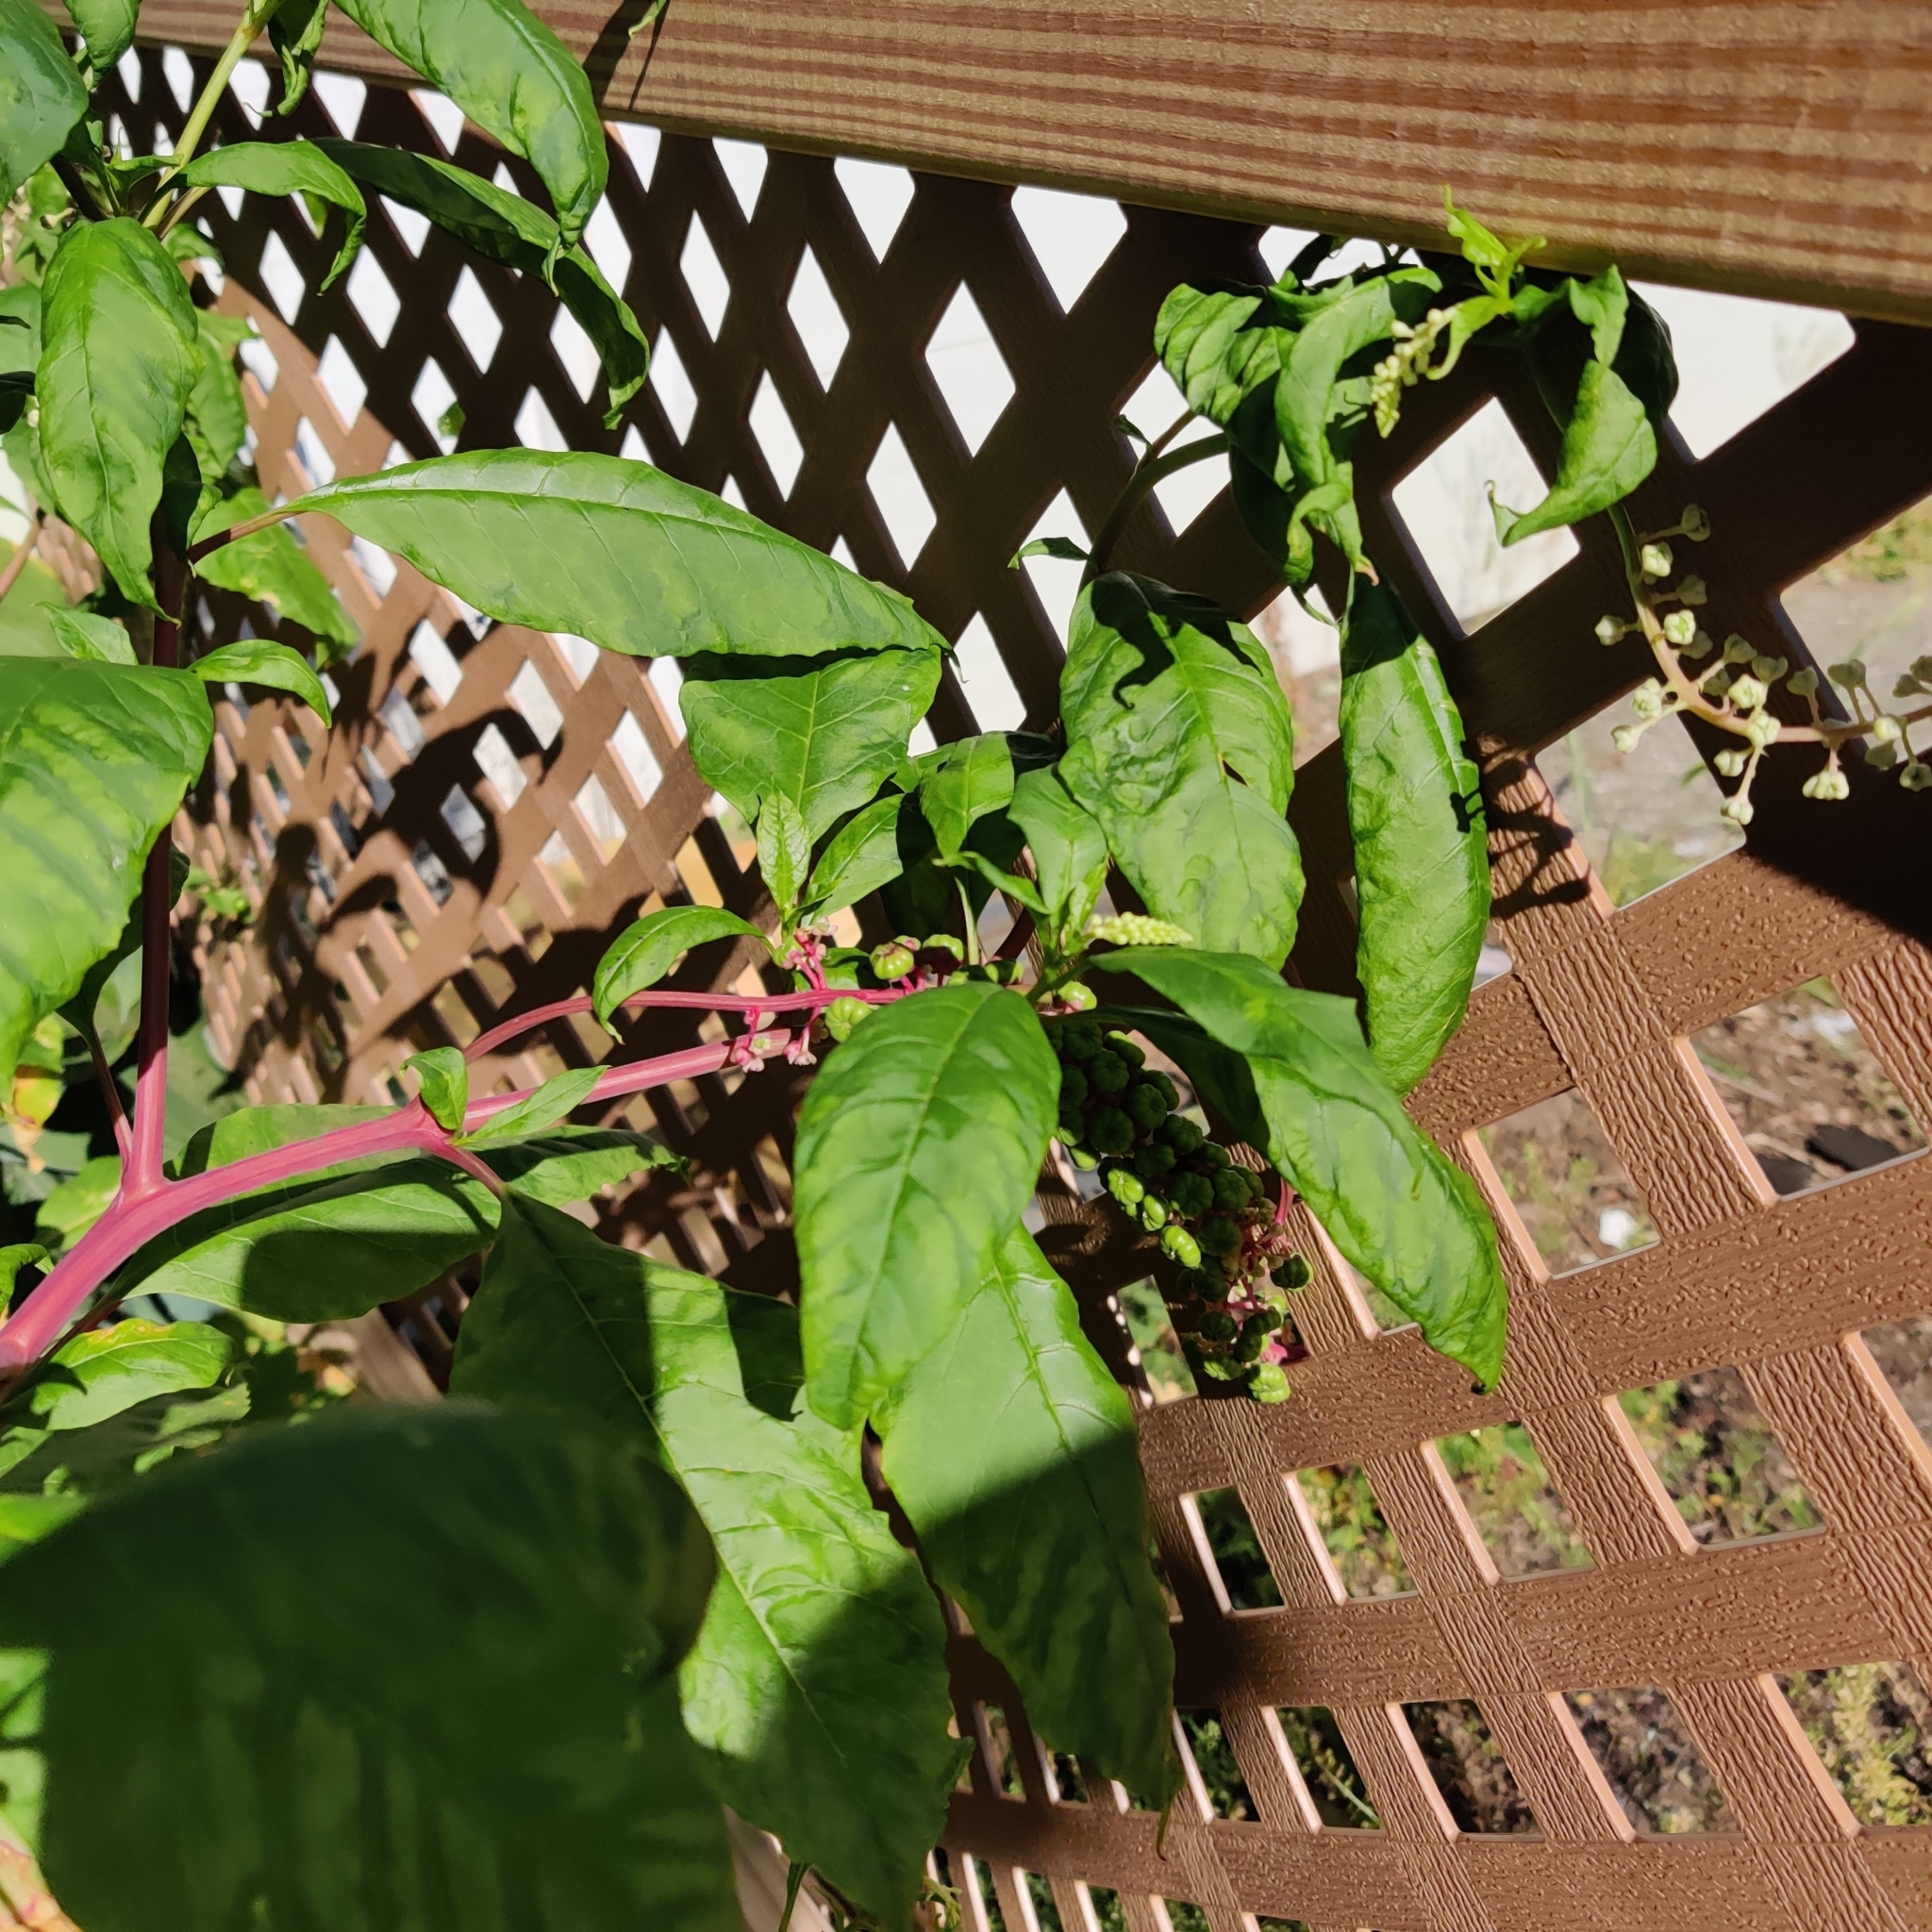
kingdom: Plantae
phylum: Tracheophyta
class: Magnoliopsida
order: Caryophyllales
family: Phytolaccaceae
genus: Phytolacca
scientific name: Phytolacca americana
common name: American pokeweed
